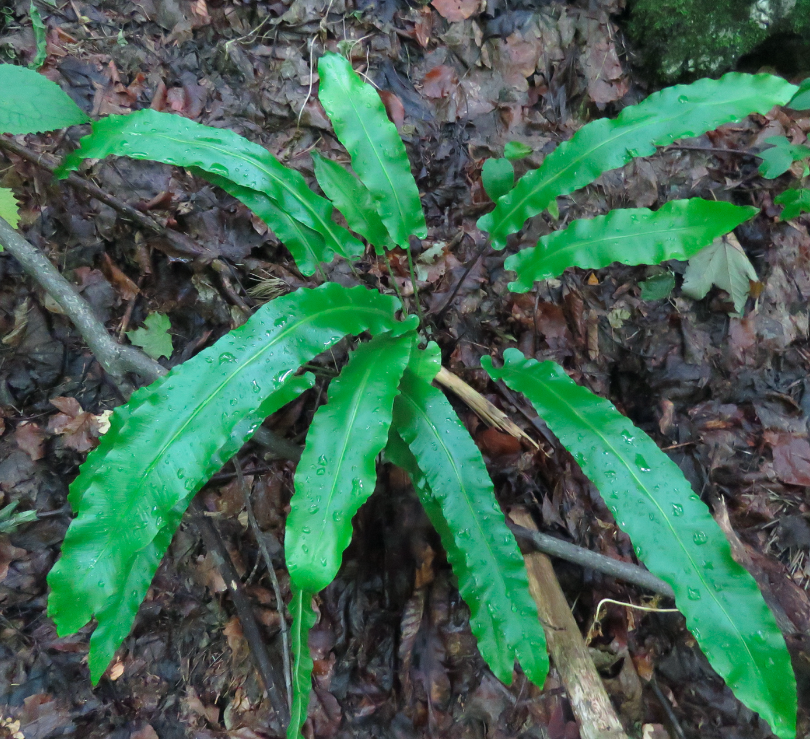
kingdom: Plantae
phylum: Tracheophyta
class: Polypodiopsida
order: Polypodiales
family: Aspleniaceae
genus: Asplenium
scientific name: Asplenium scolopendrium
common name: Hart's-tongue fern
